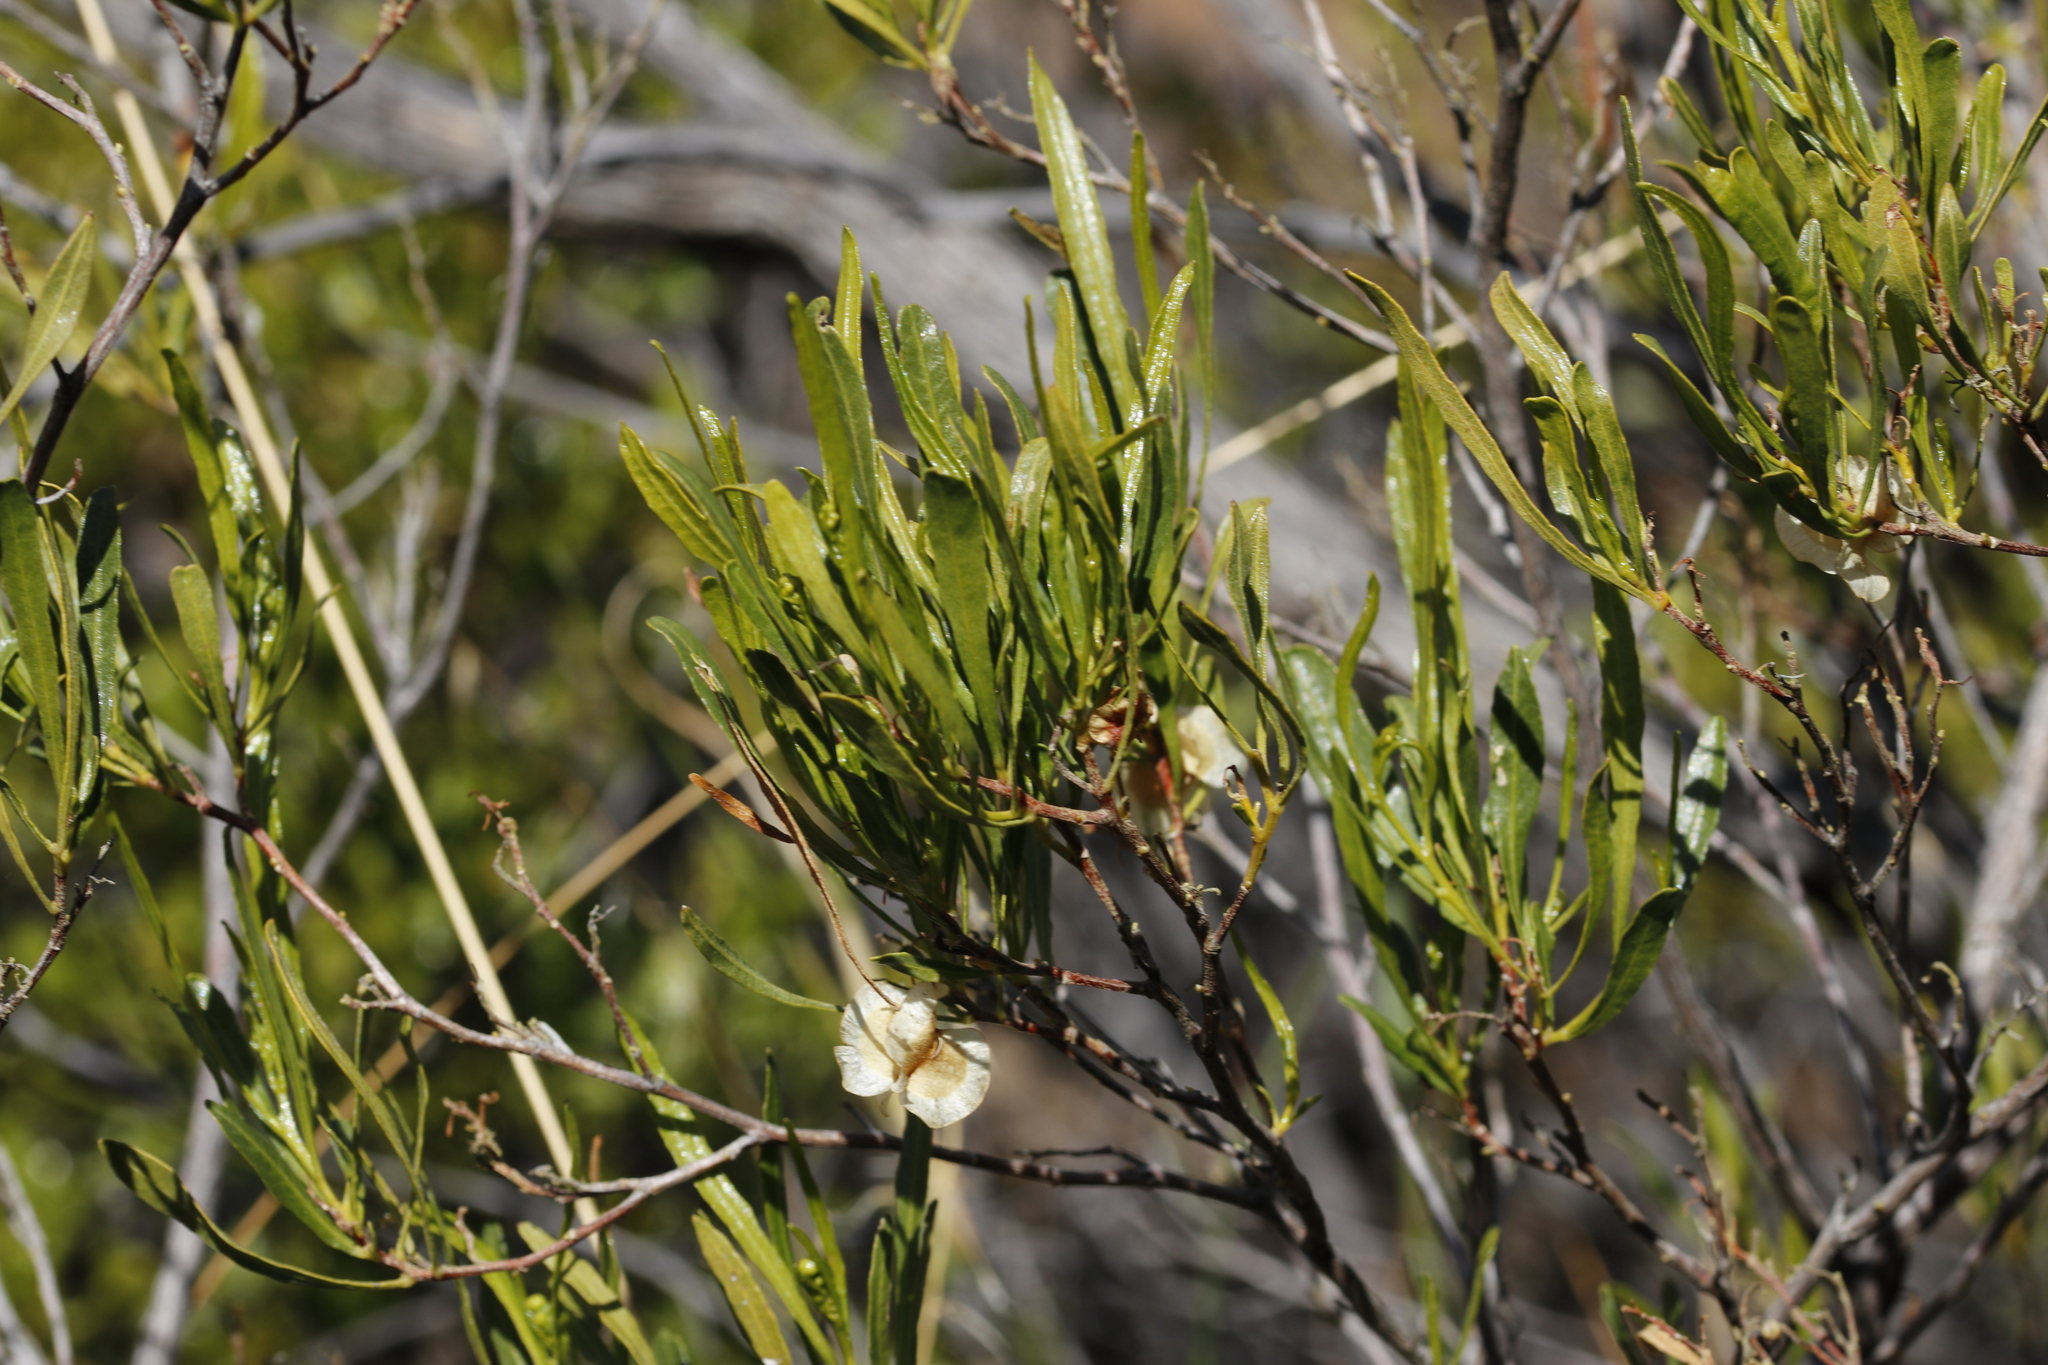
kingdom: Plantae
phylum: Tracheophyta
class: Magnoliopsida
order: Sapindales
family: Sapindaceae
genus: Dodonaea
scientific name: Dodonaea viscosa
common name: Hopbush
